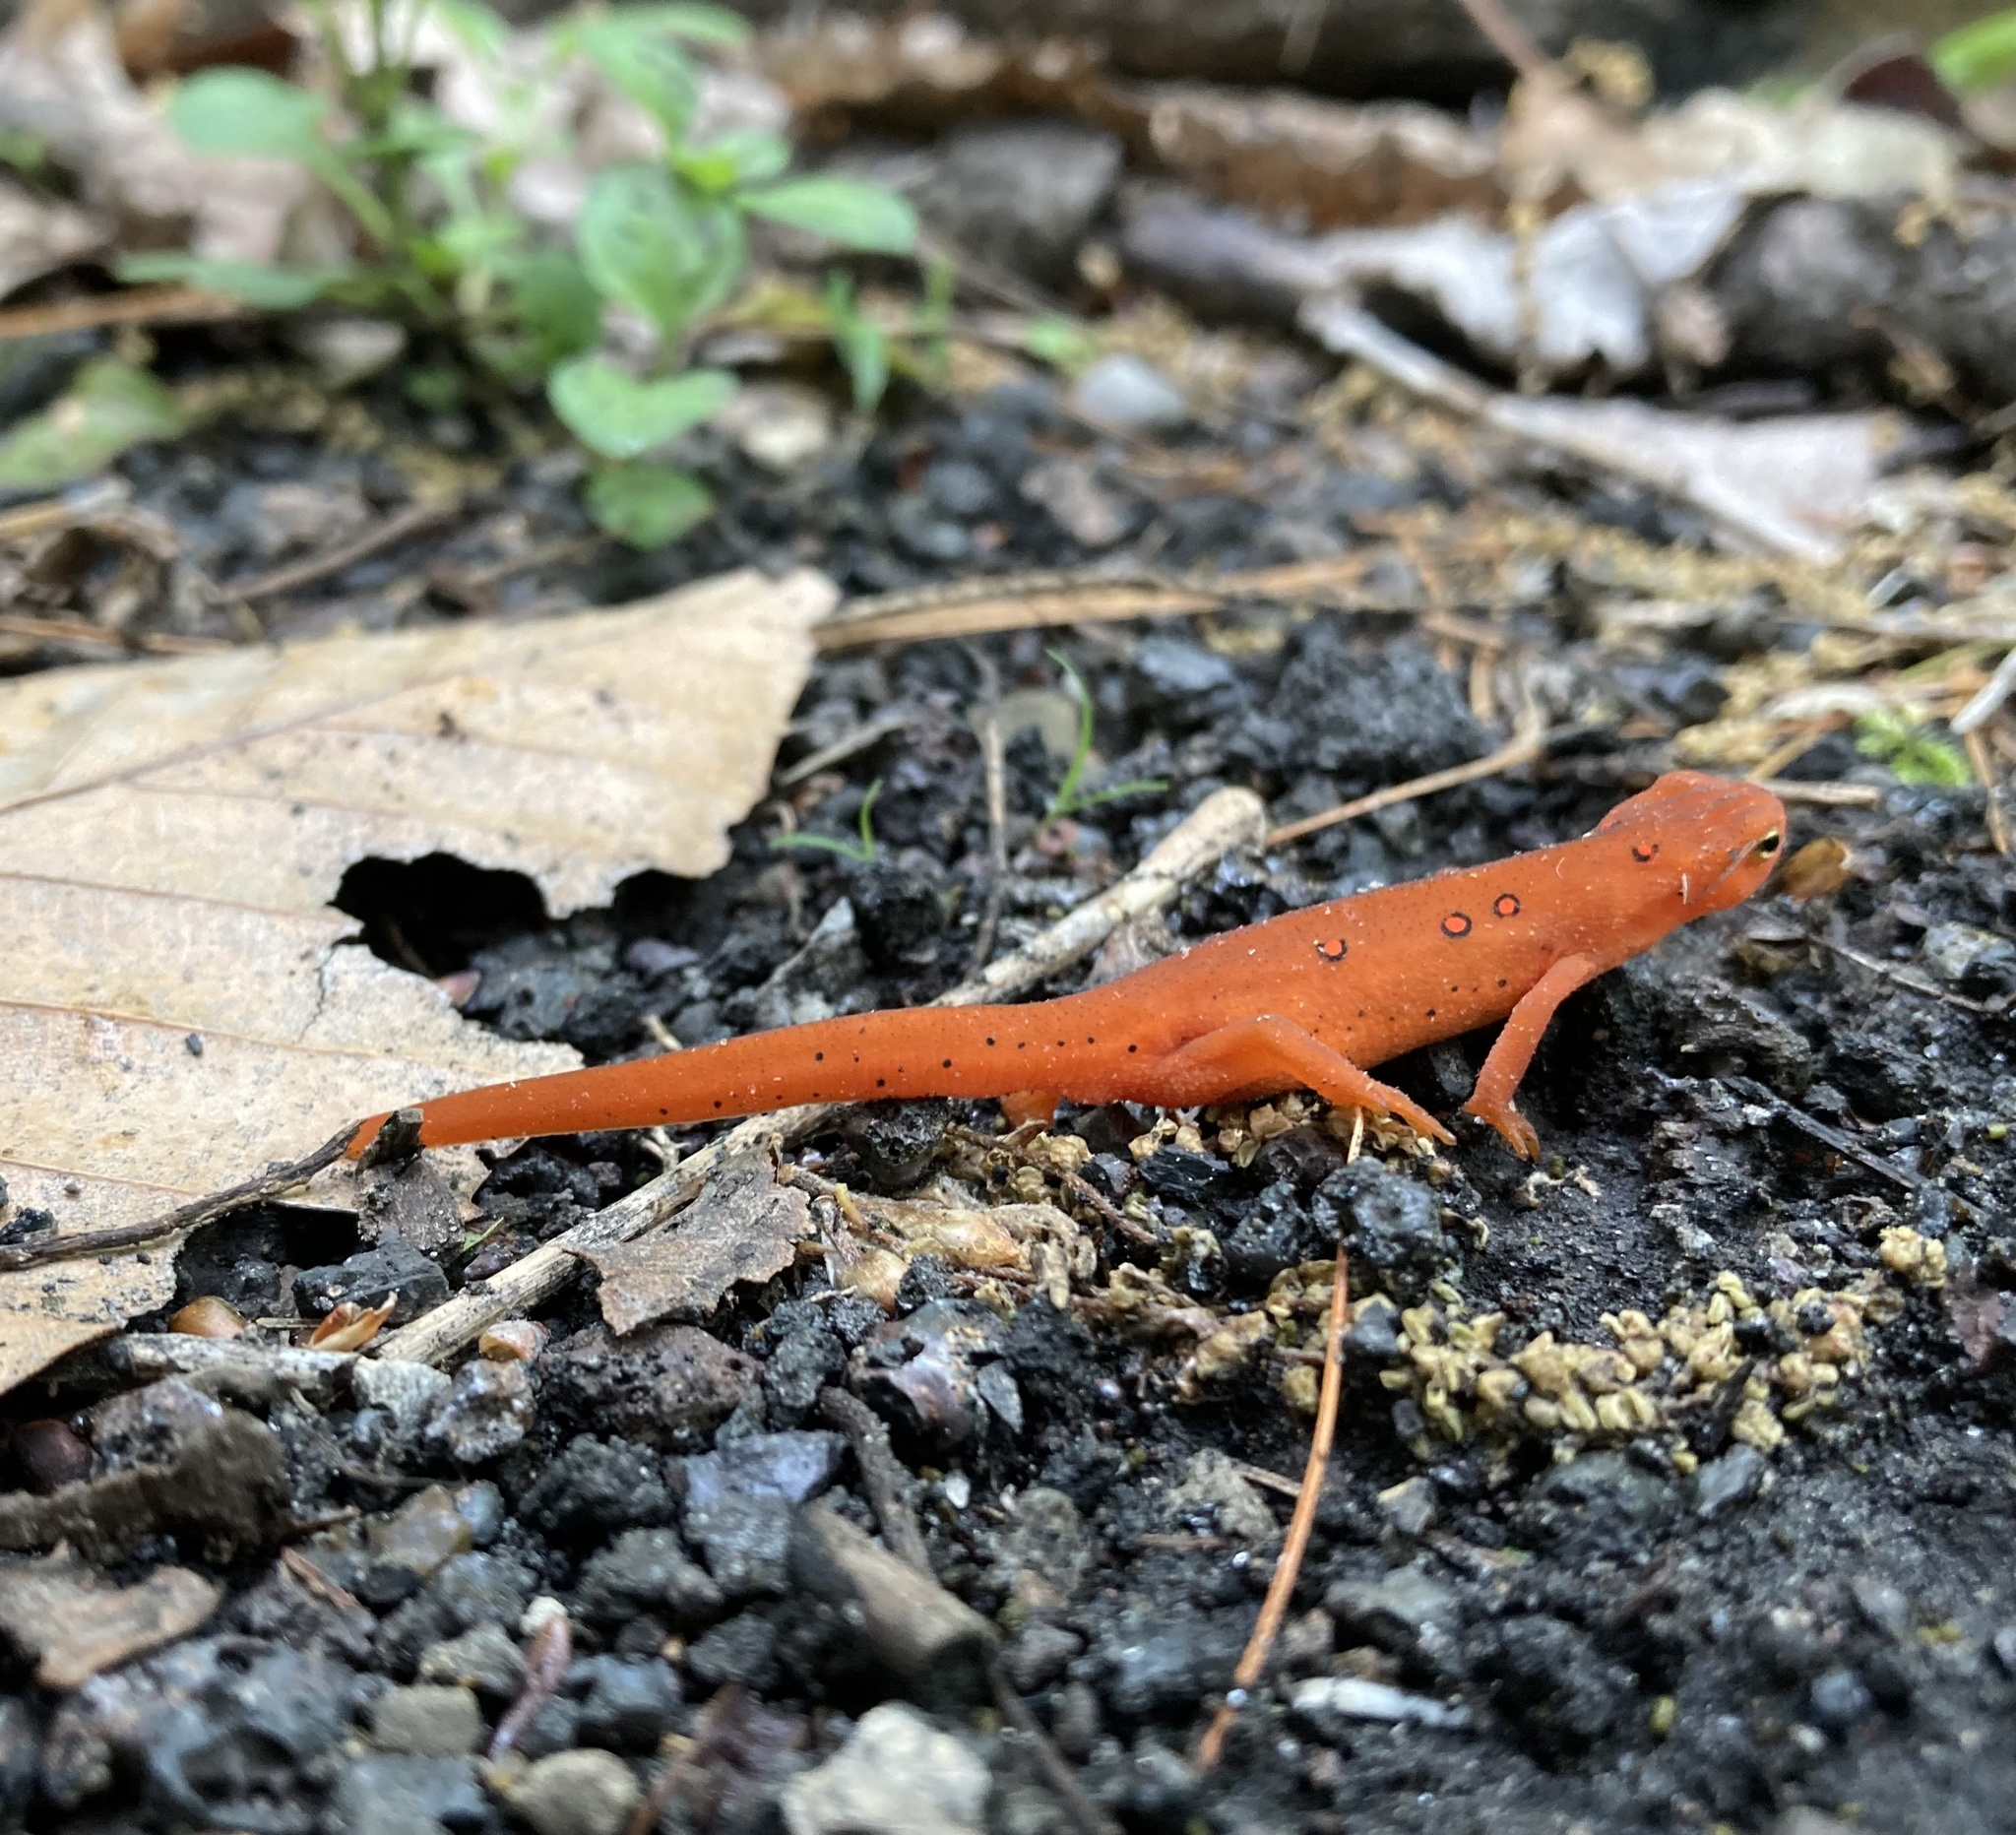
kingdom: Animalia
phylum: Chordata
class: Amphibia
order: Caudata
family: Salamandridae
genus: Notophthalmus
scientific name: Notophthalmus viridescens
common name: Eastern newt
